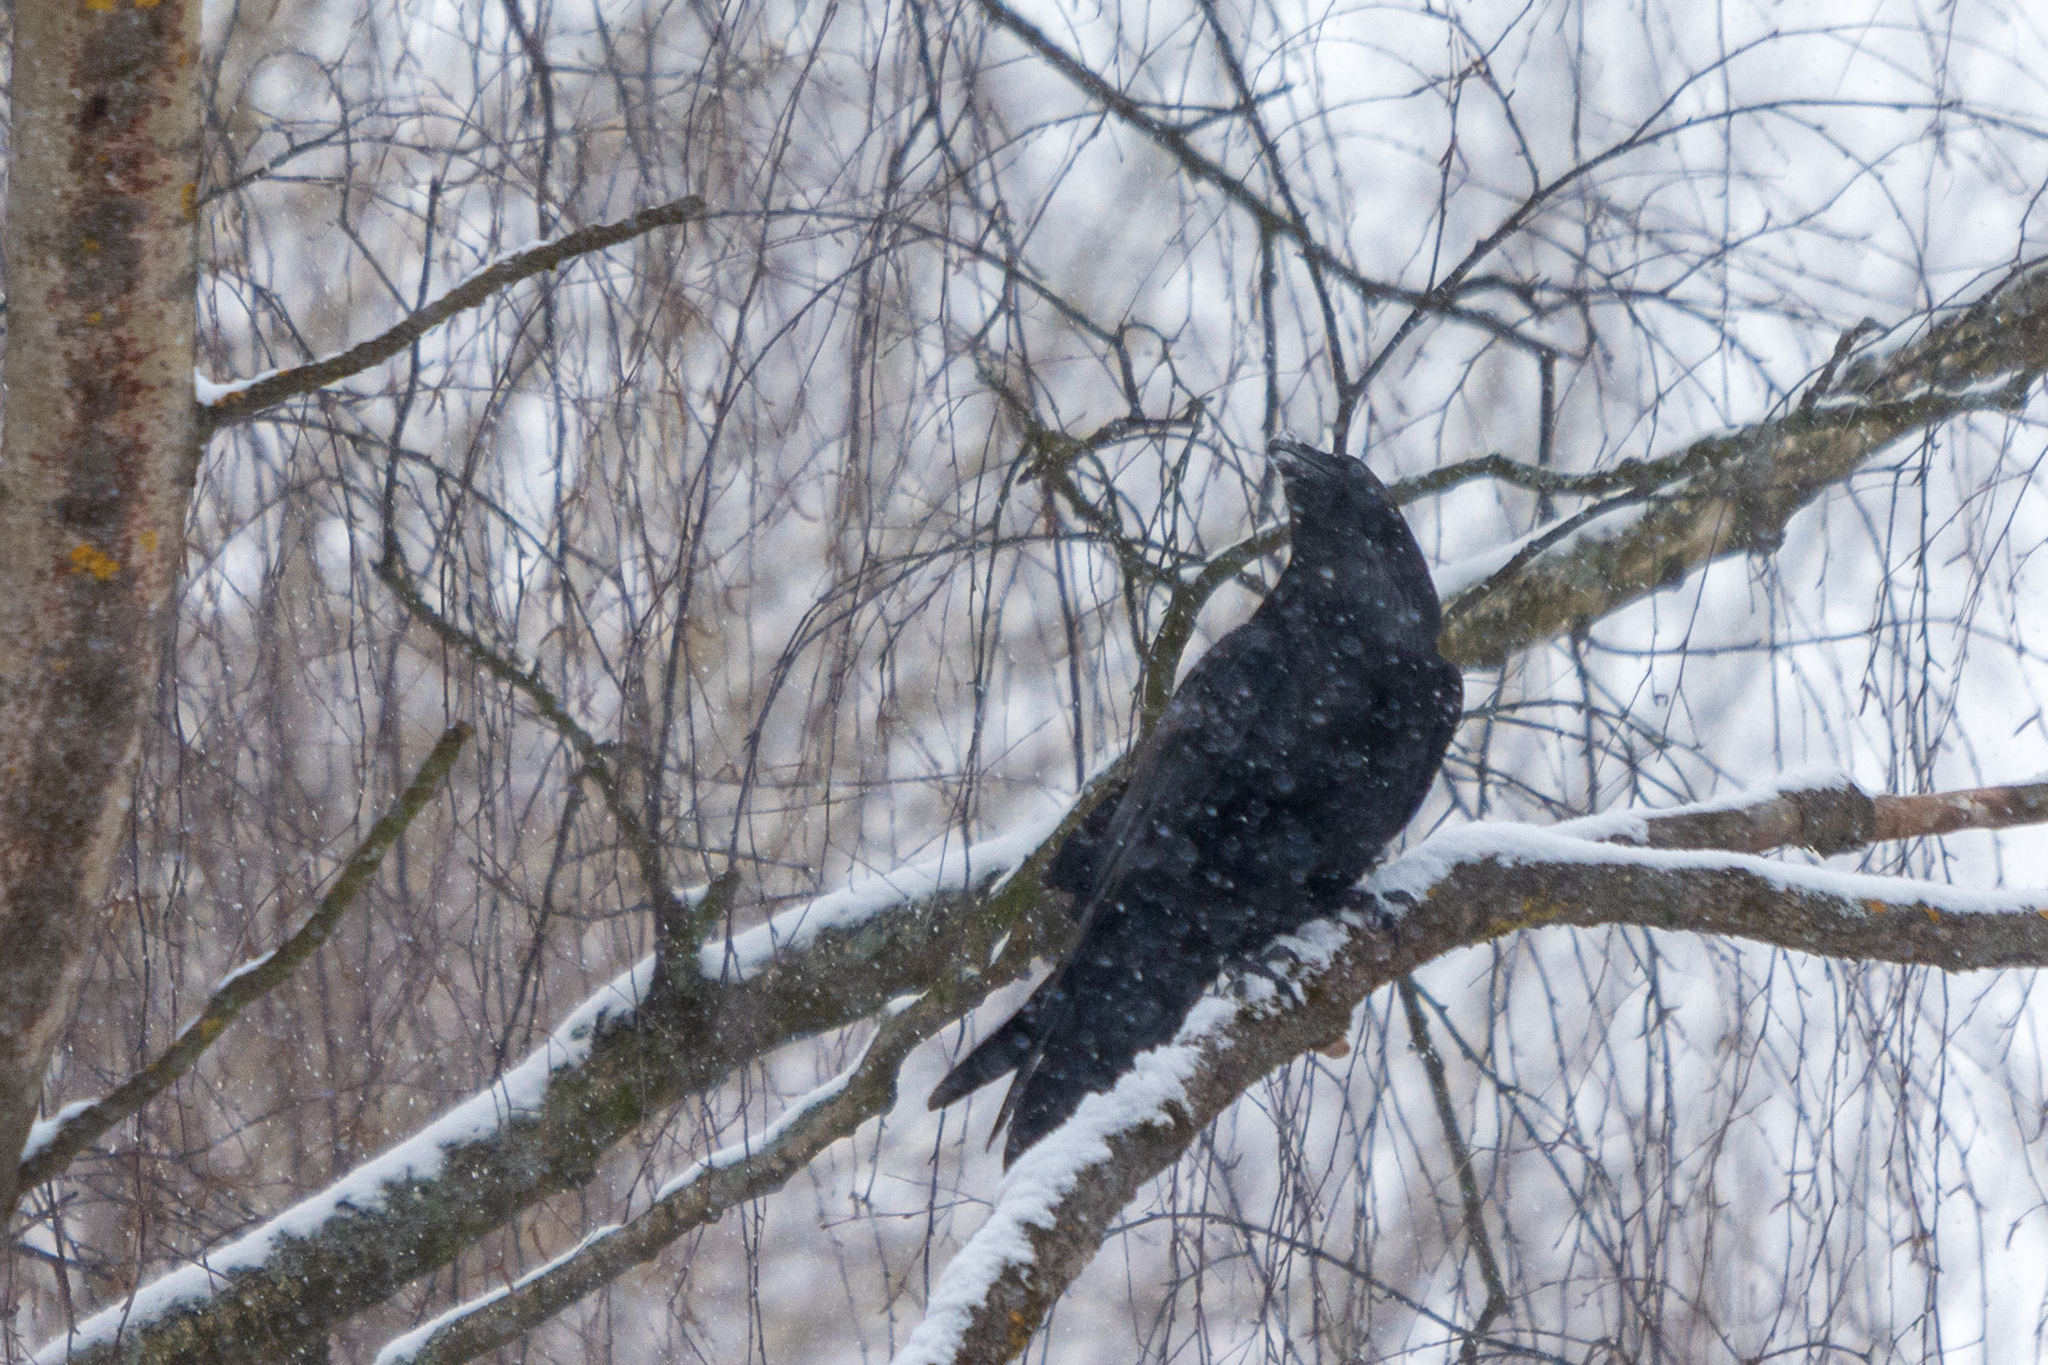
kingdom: Animalia
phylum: Chordata
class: Aves
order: Passeriformes
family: Corvidae
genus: Corvus
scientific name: Corvus corax
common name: Common raven
